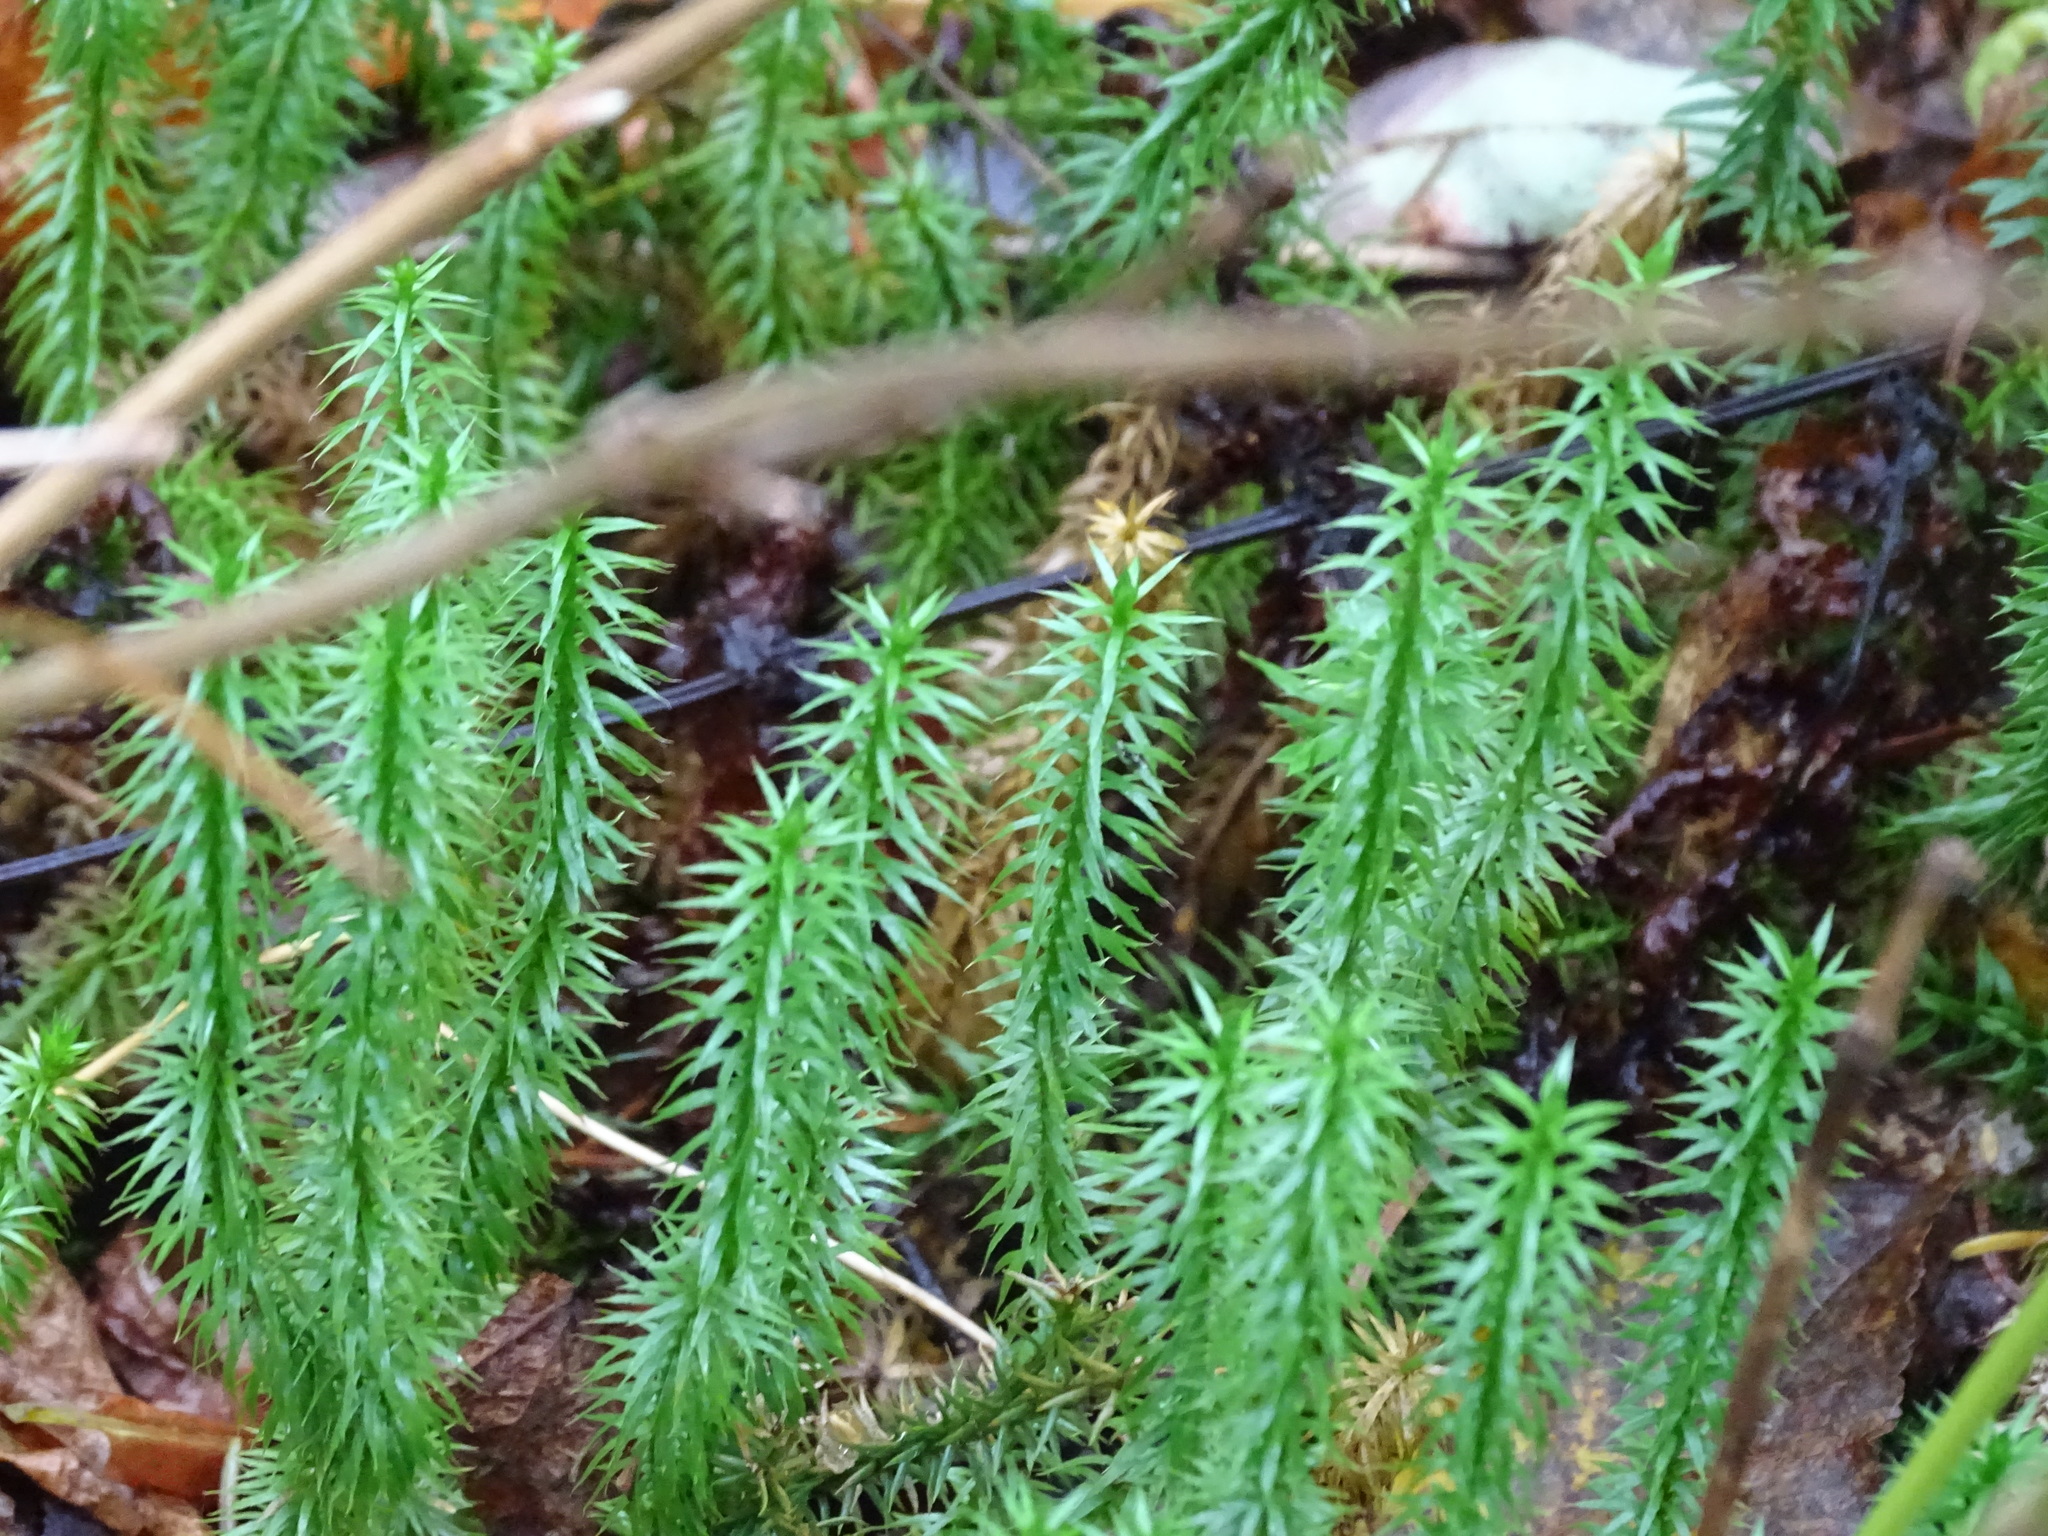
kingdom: Plantae
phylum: Tracheophyta
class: Lycopodiopsida
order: Lycopodiales
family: Lycopodiaceae
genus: Spinulum
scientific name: Spinulum annotinum
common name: Interrupted club-moss
